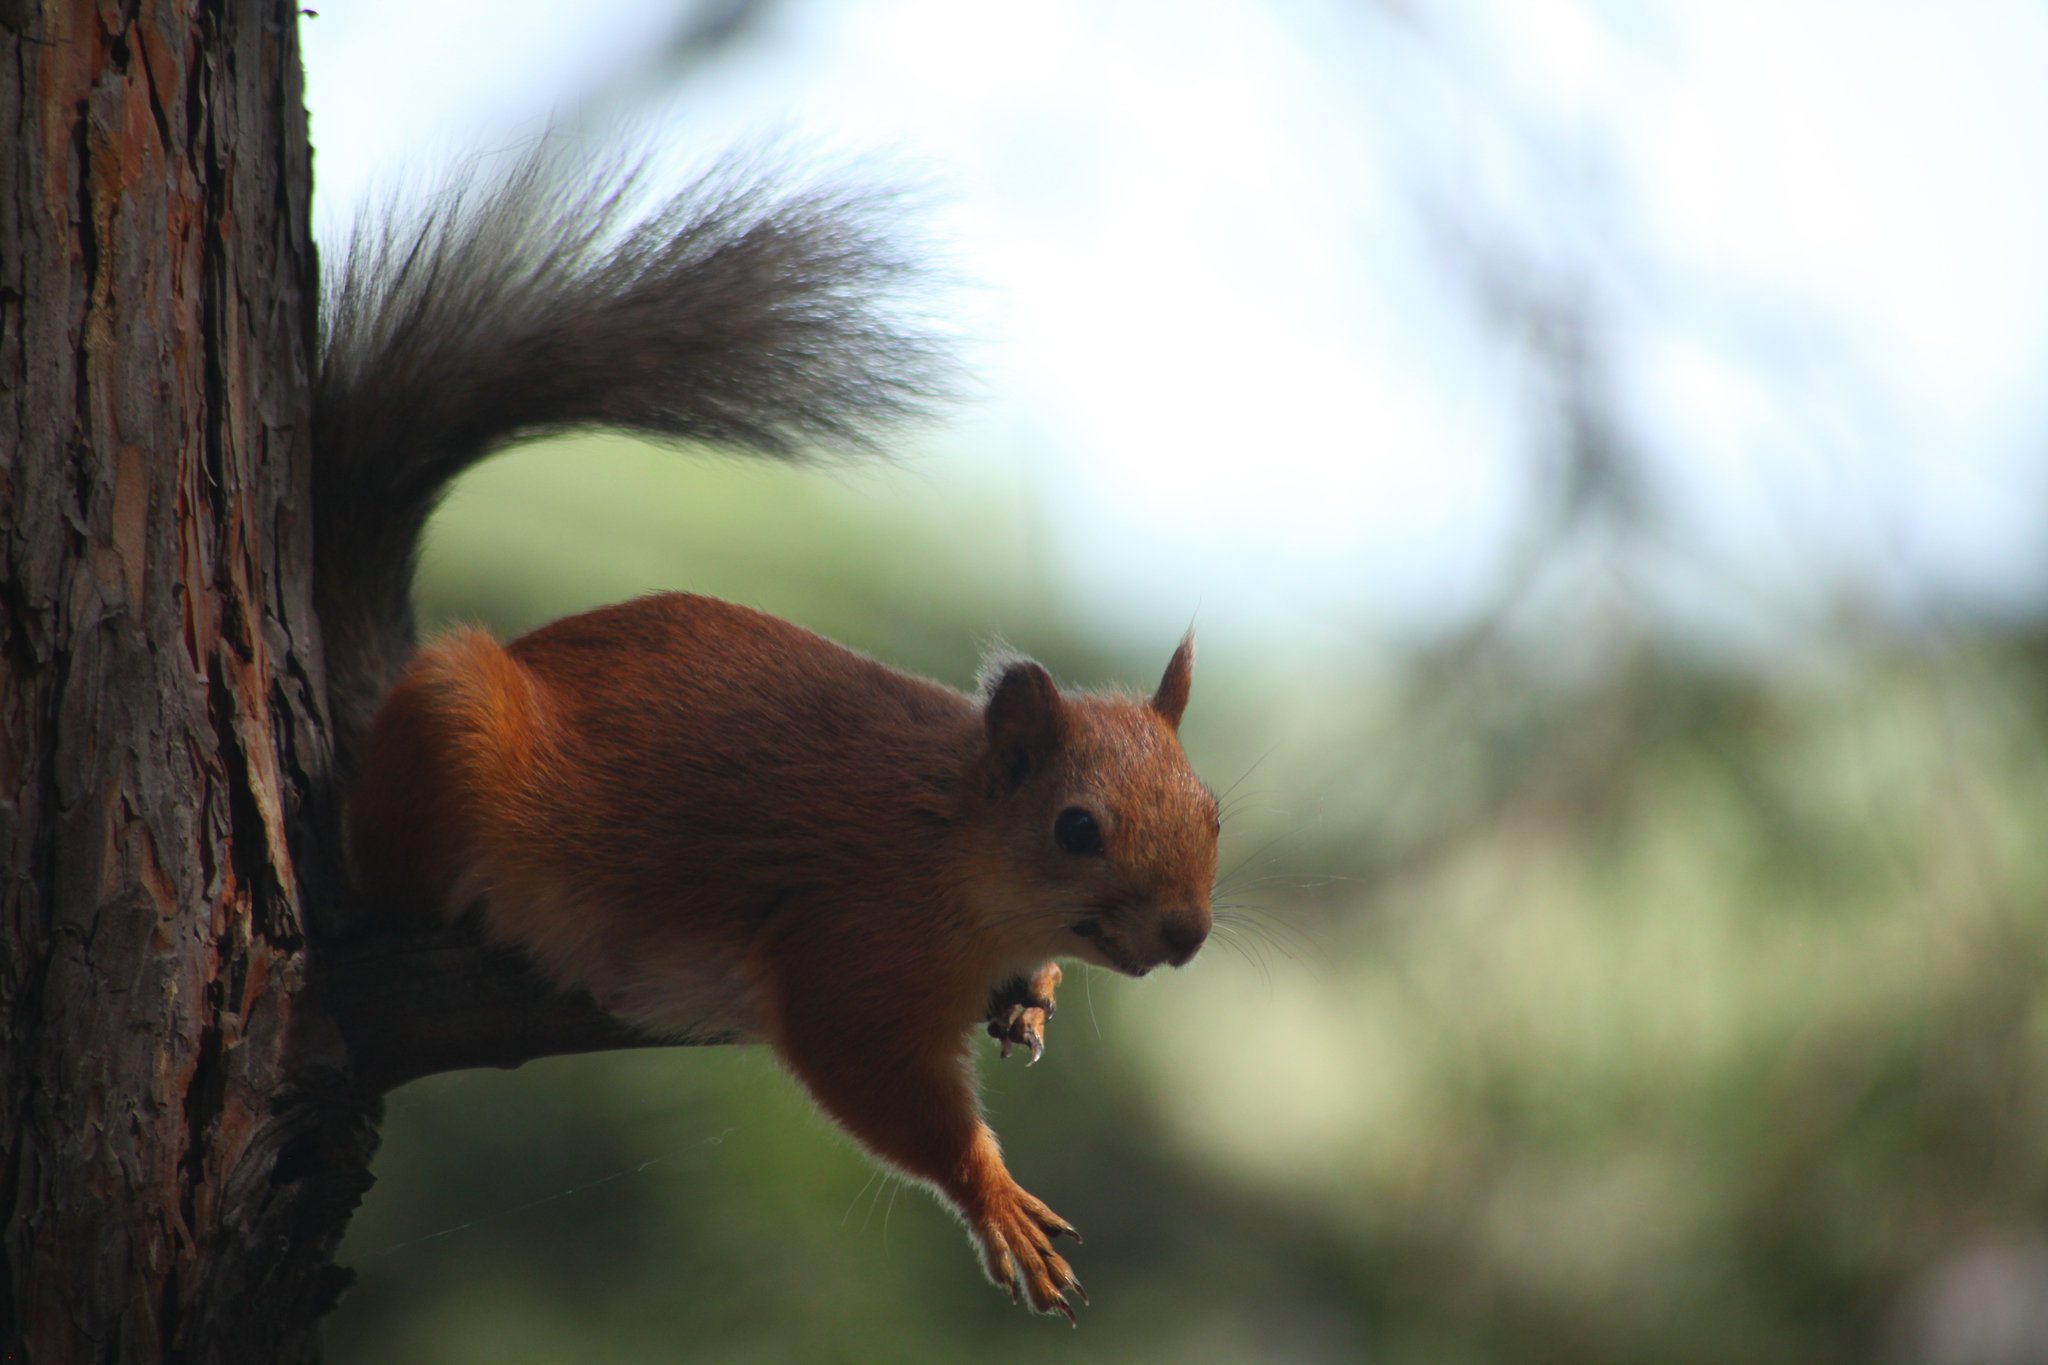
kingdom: Animalia
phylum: Chordata
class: Mammalia
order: Rodentia
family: Sciuridae
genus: Sciurus
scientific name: Sciurus vulgaris
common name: Eurasian red squirrel
